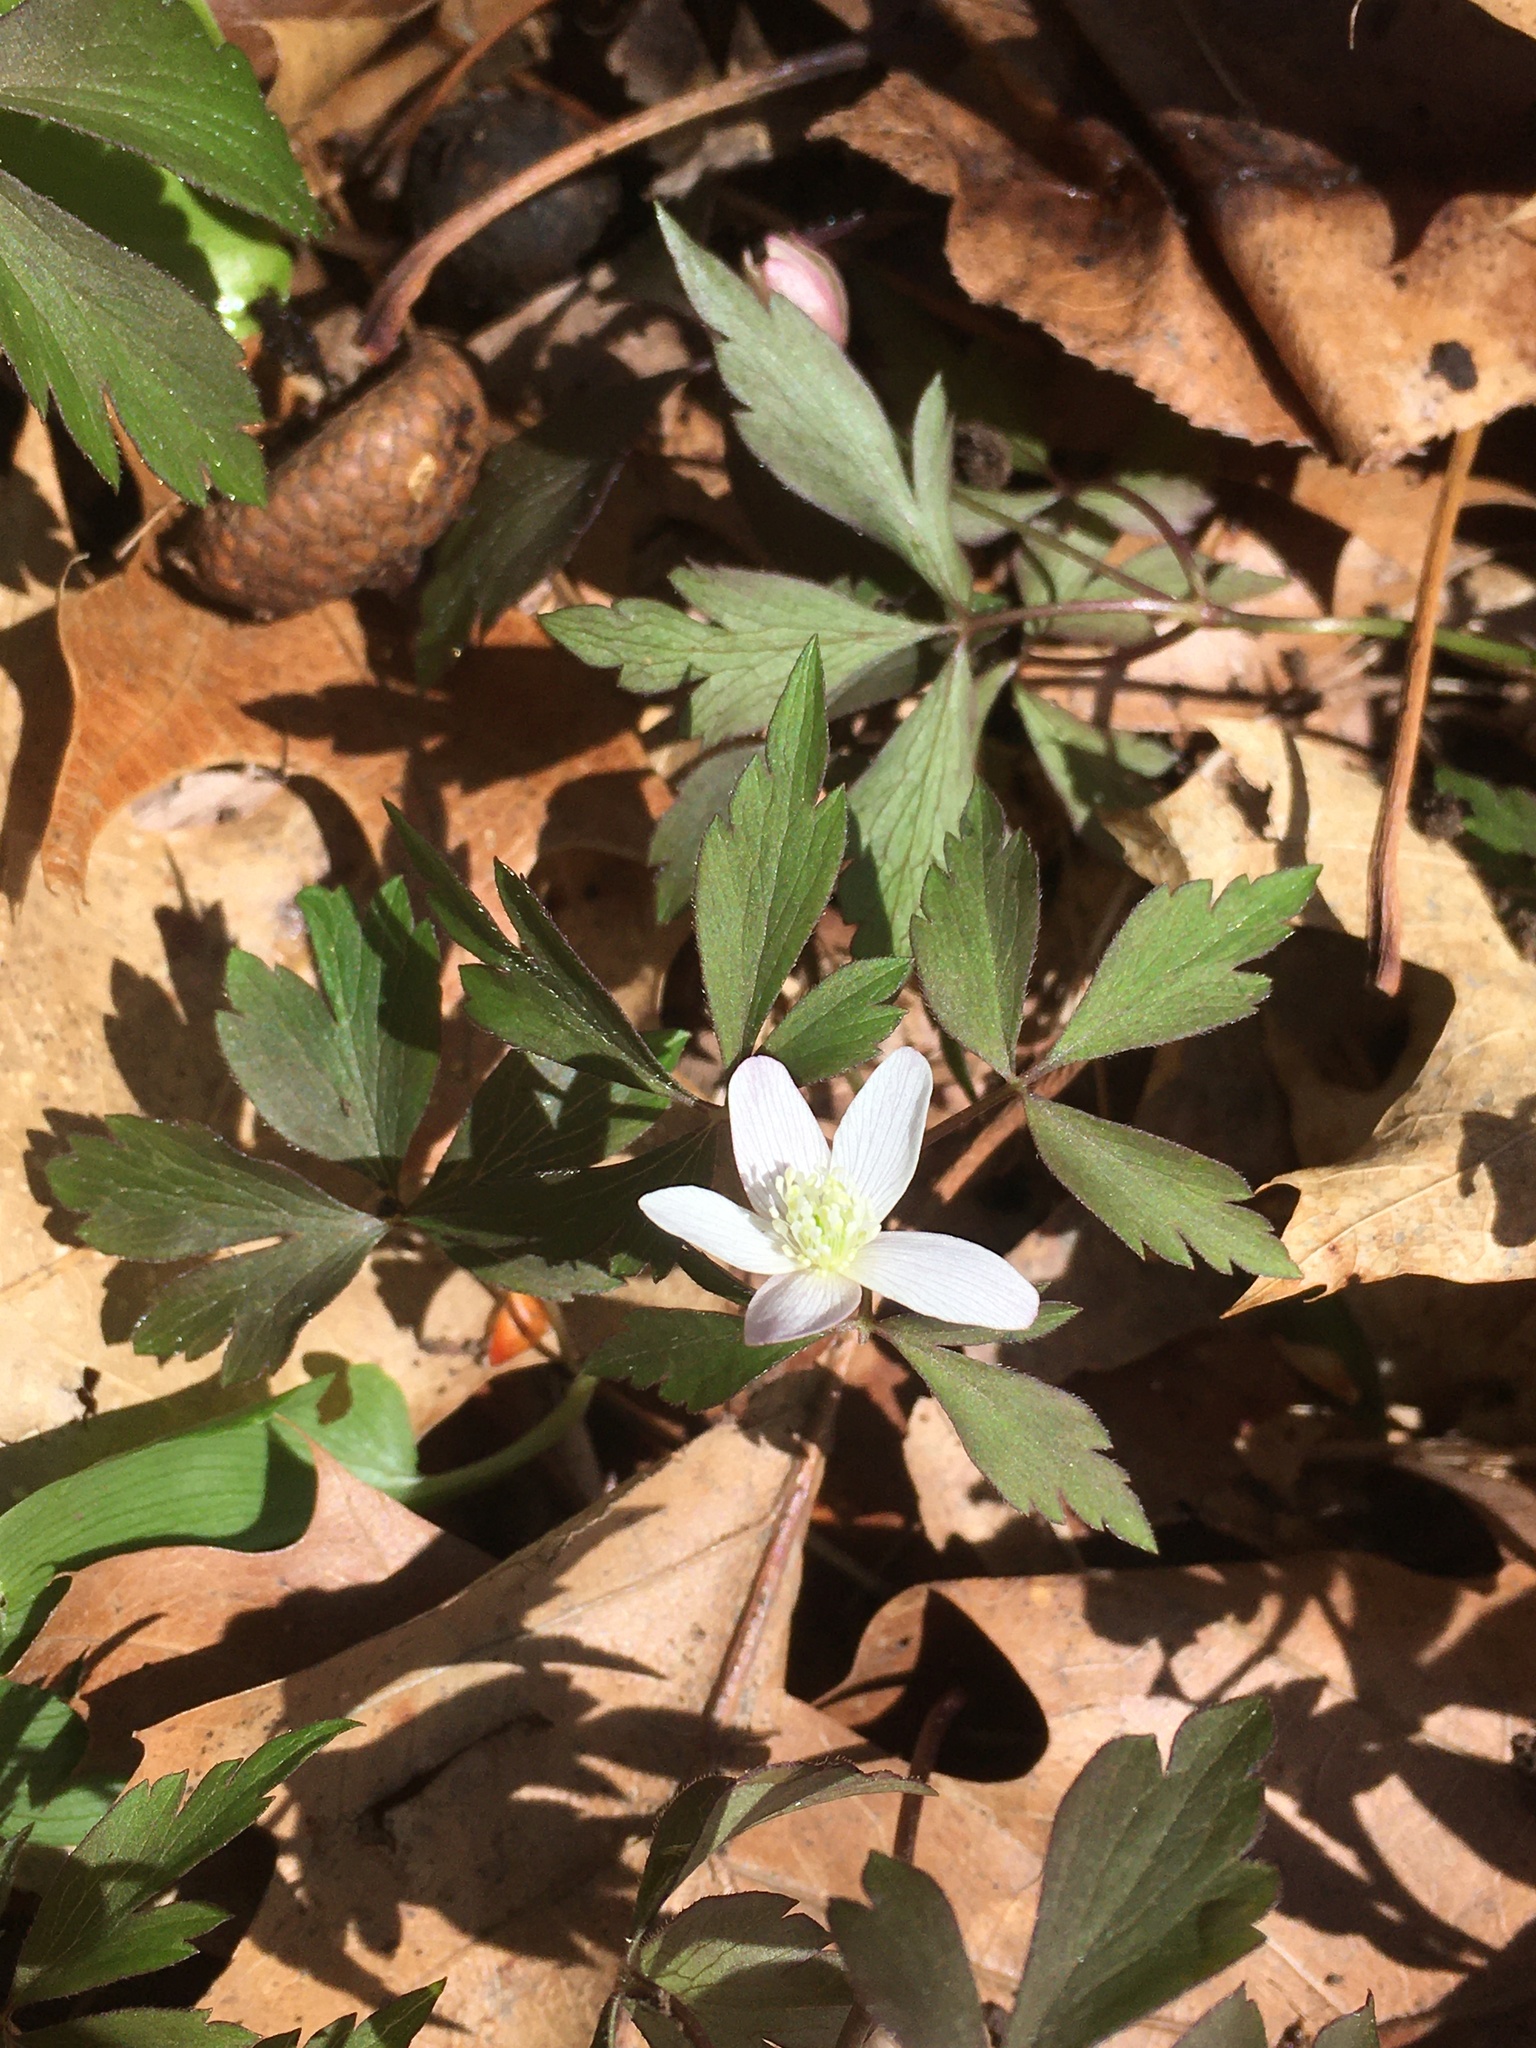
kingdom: Plantae
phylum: Tracheophyta
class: Magnoliopsida
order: Ranunculales
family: Ranunculaceae
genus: Anemone
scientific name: Anemone quinquefolia
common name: Wood anemone
